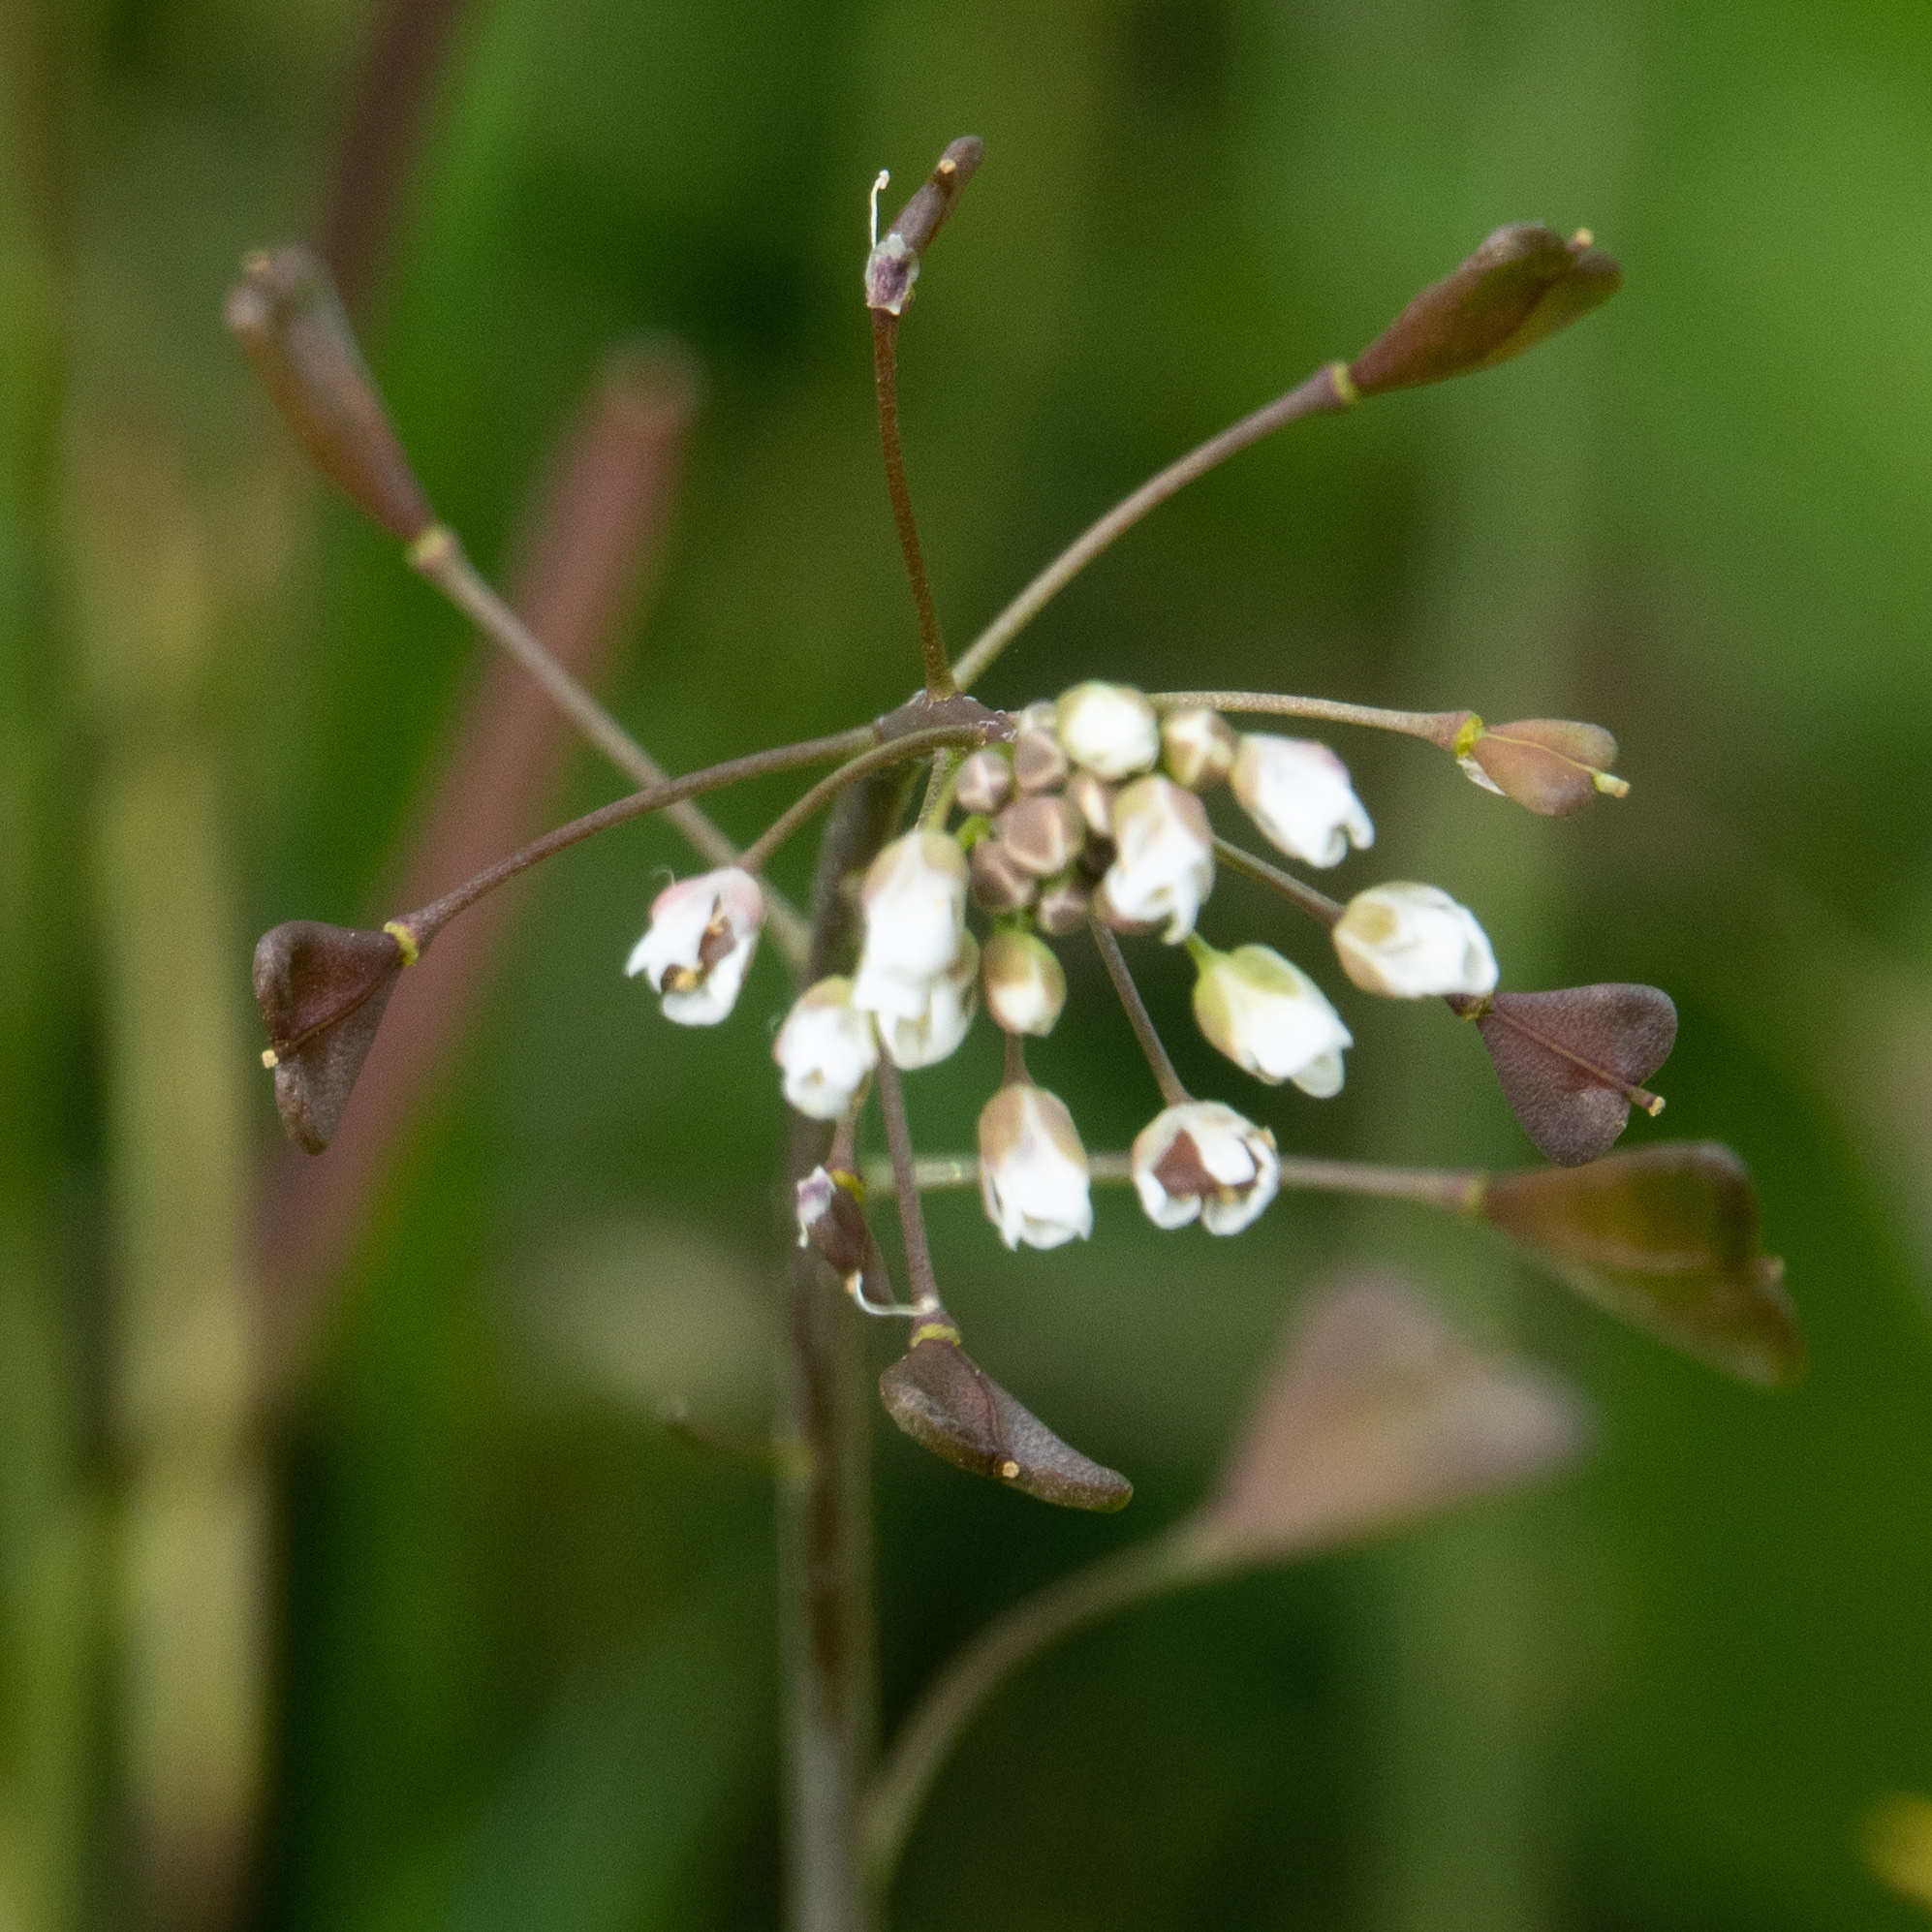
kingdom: Plantae
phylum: Tracheophyta
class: Magnoliopsida
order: Brassicales
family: Brassicaceae
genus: Capsella
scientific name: Capsella bursa-pastoris
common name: Shepherd's purse
